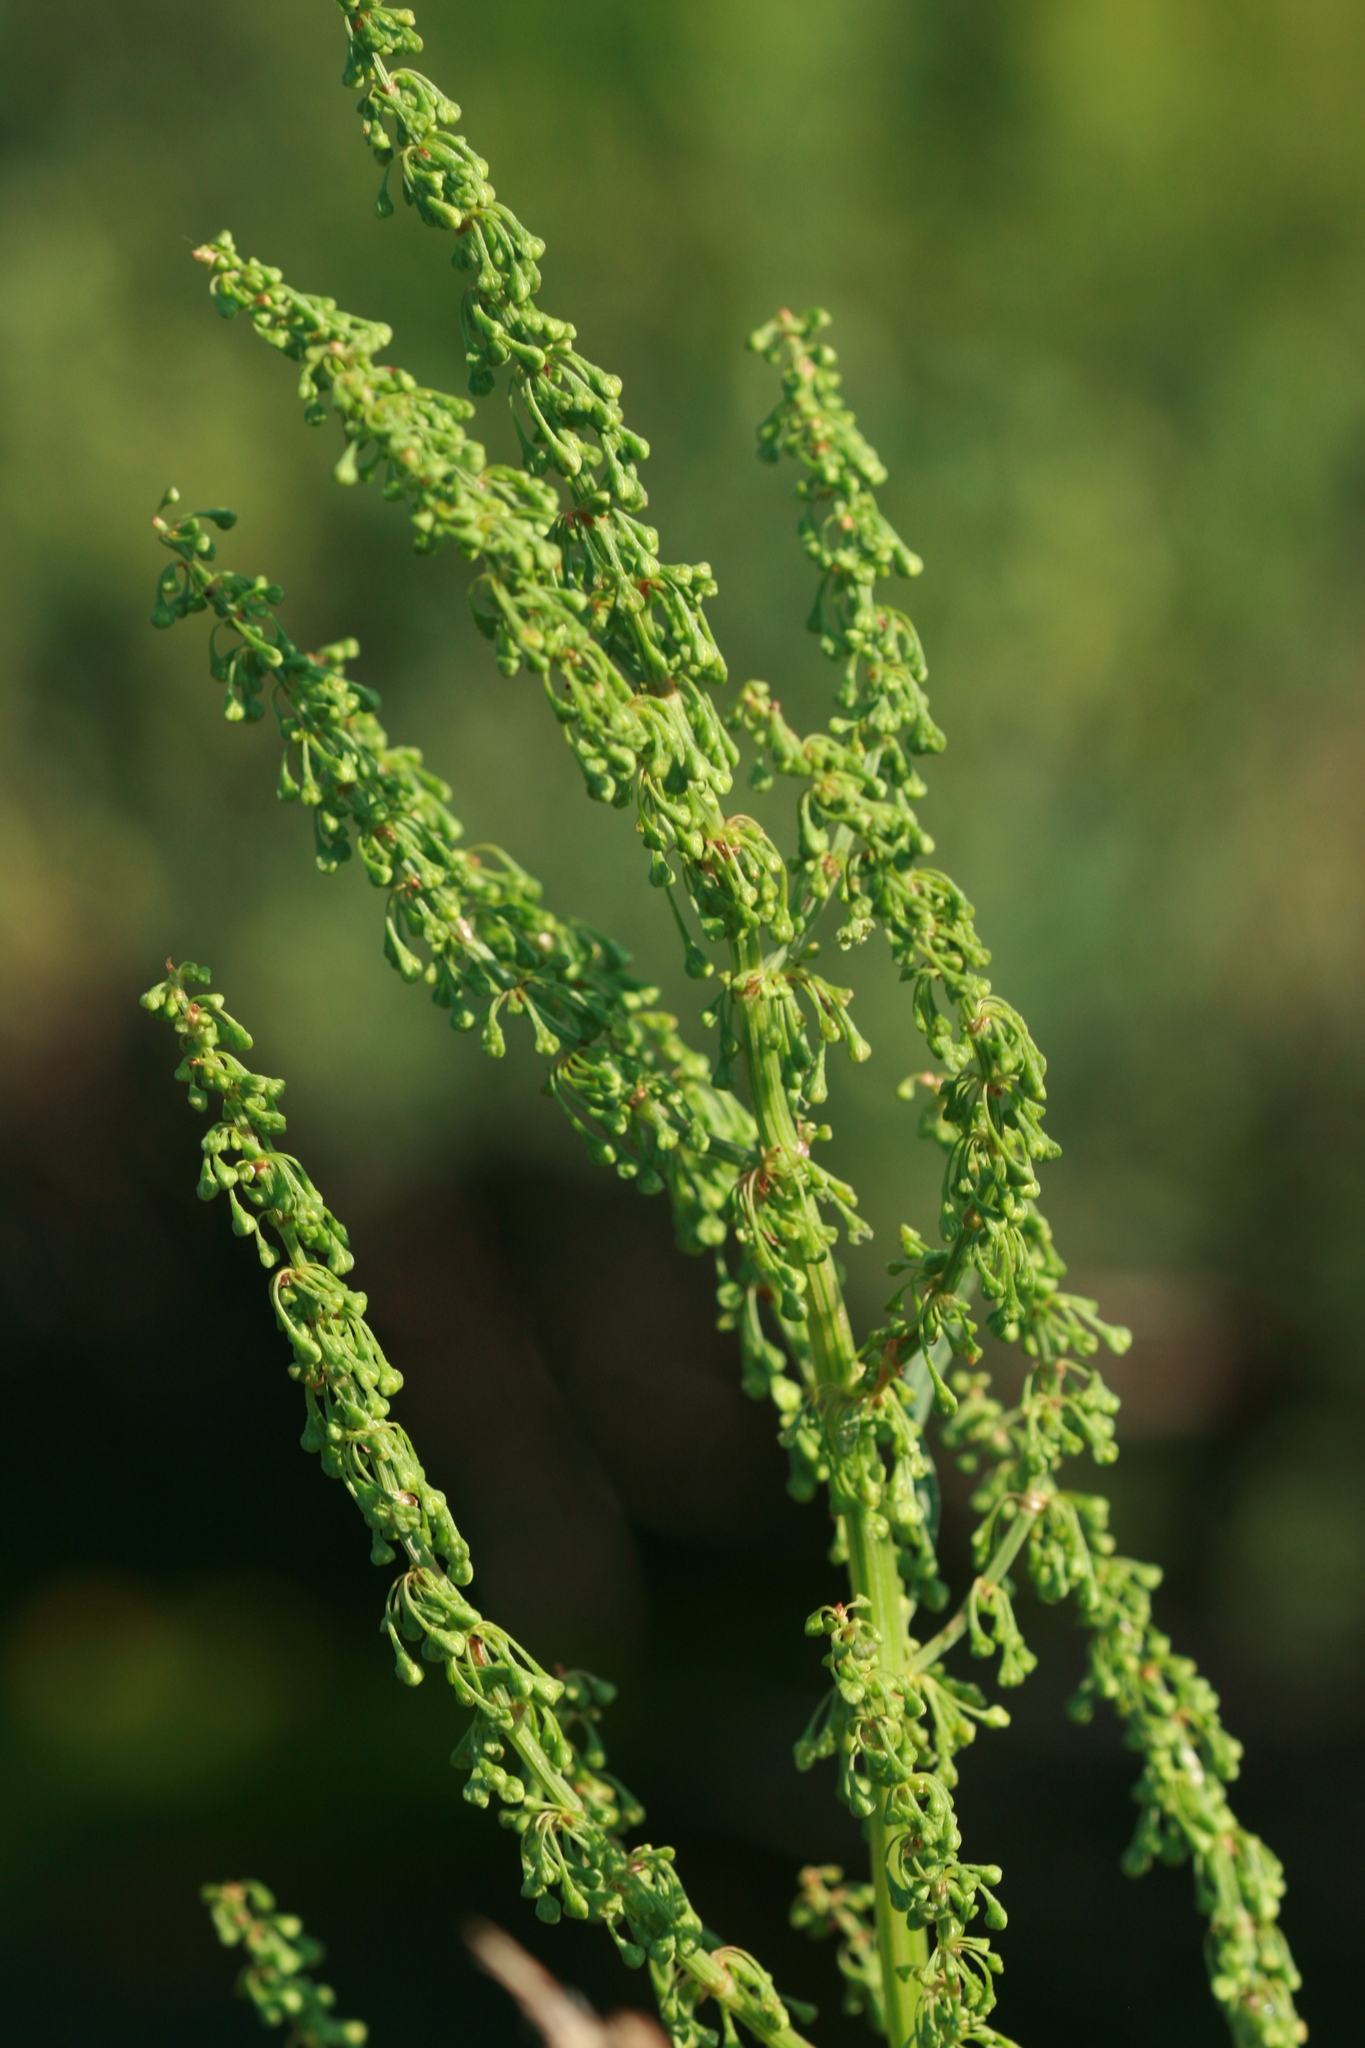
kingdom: Plantae
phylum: Tracheophyta
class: Magnoliopsida
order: Caryophyllales
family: Polygonaceae
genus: Rumex
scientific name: Rumex britannica
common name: British dock
